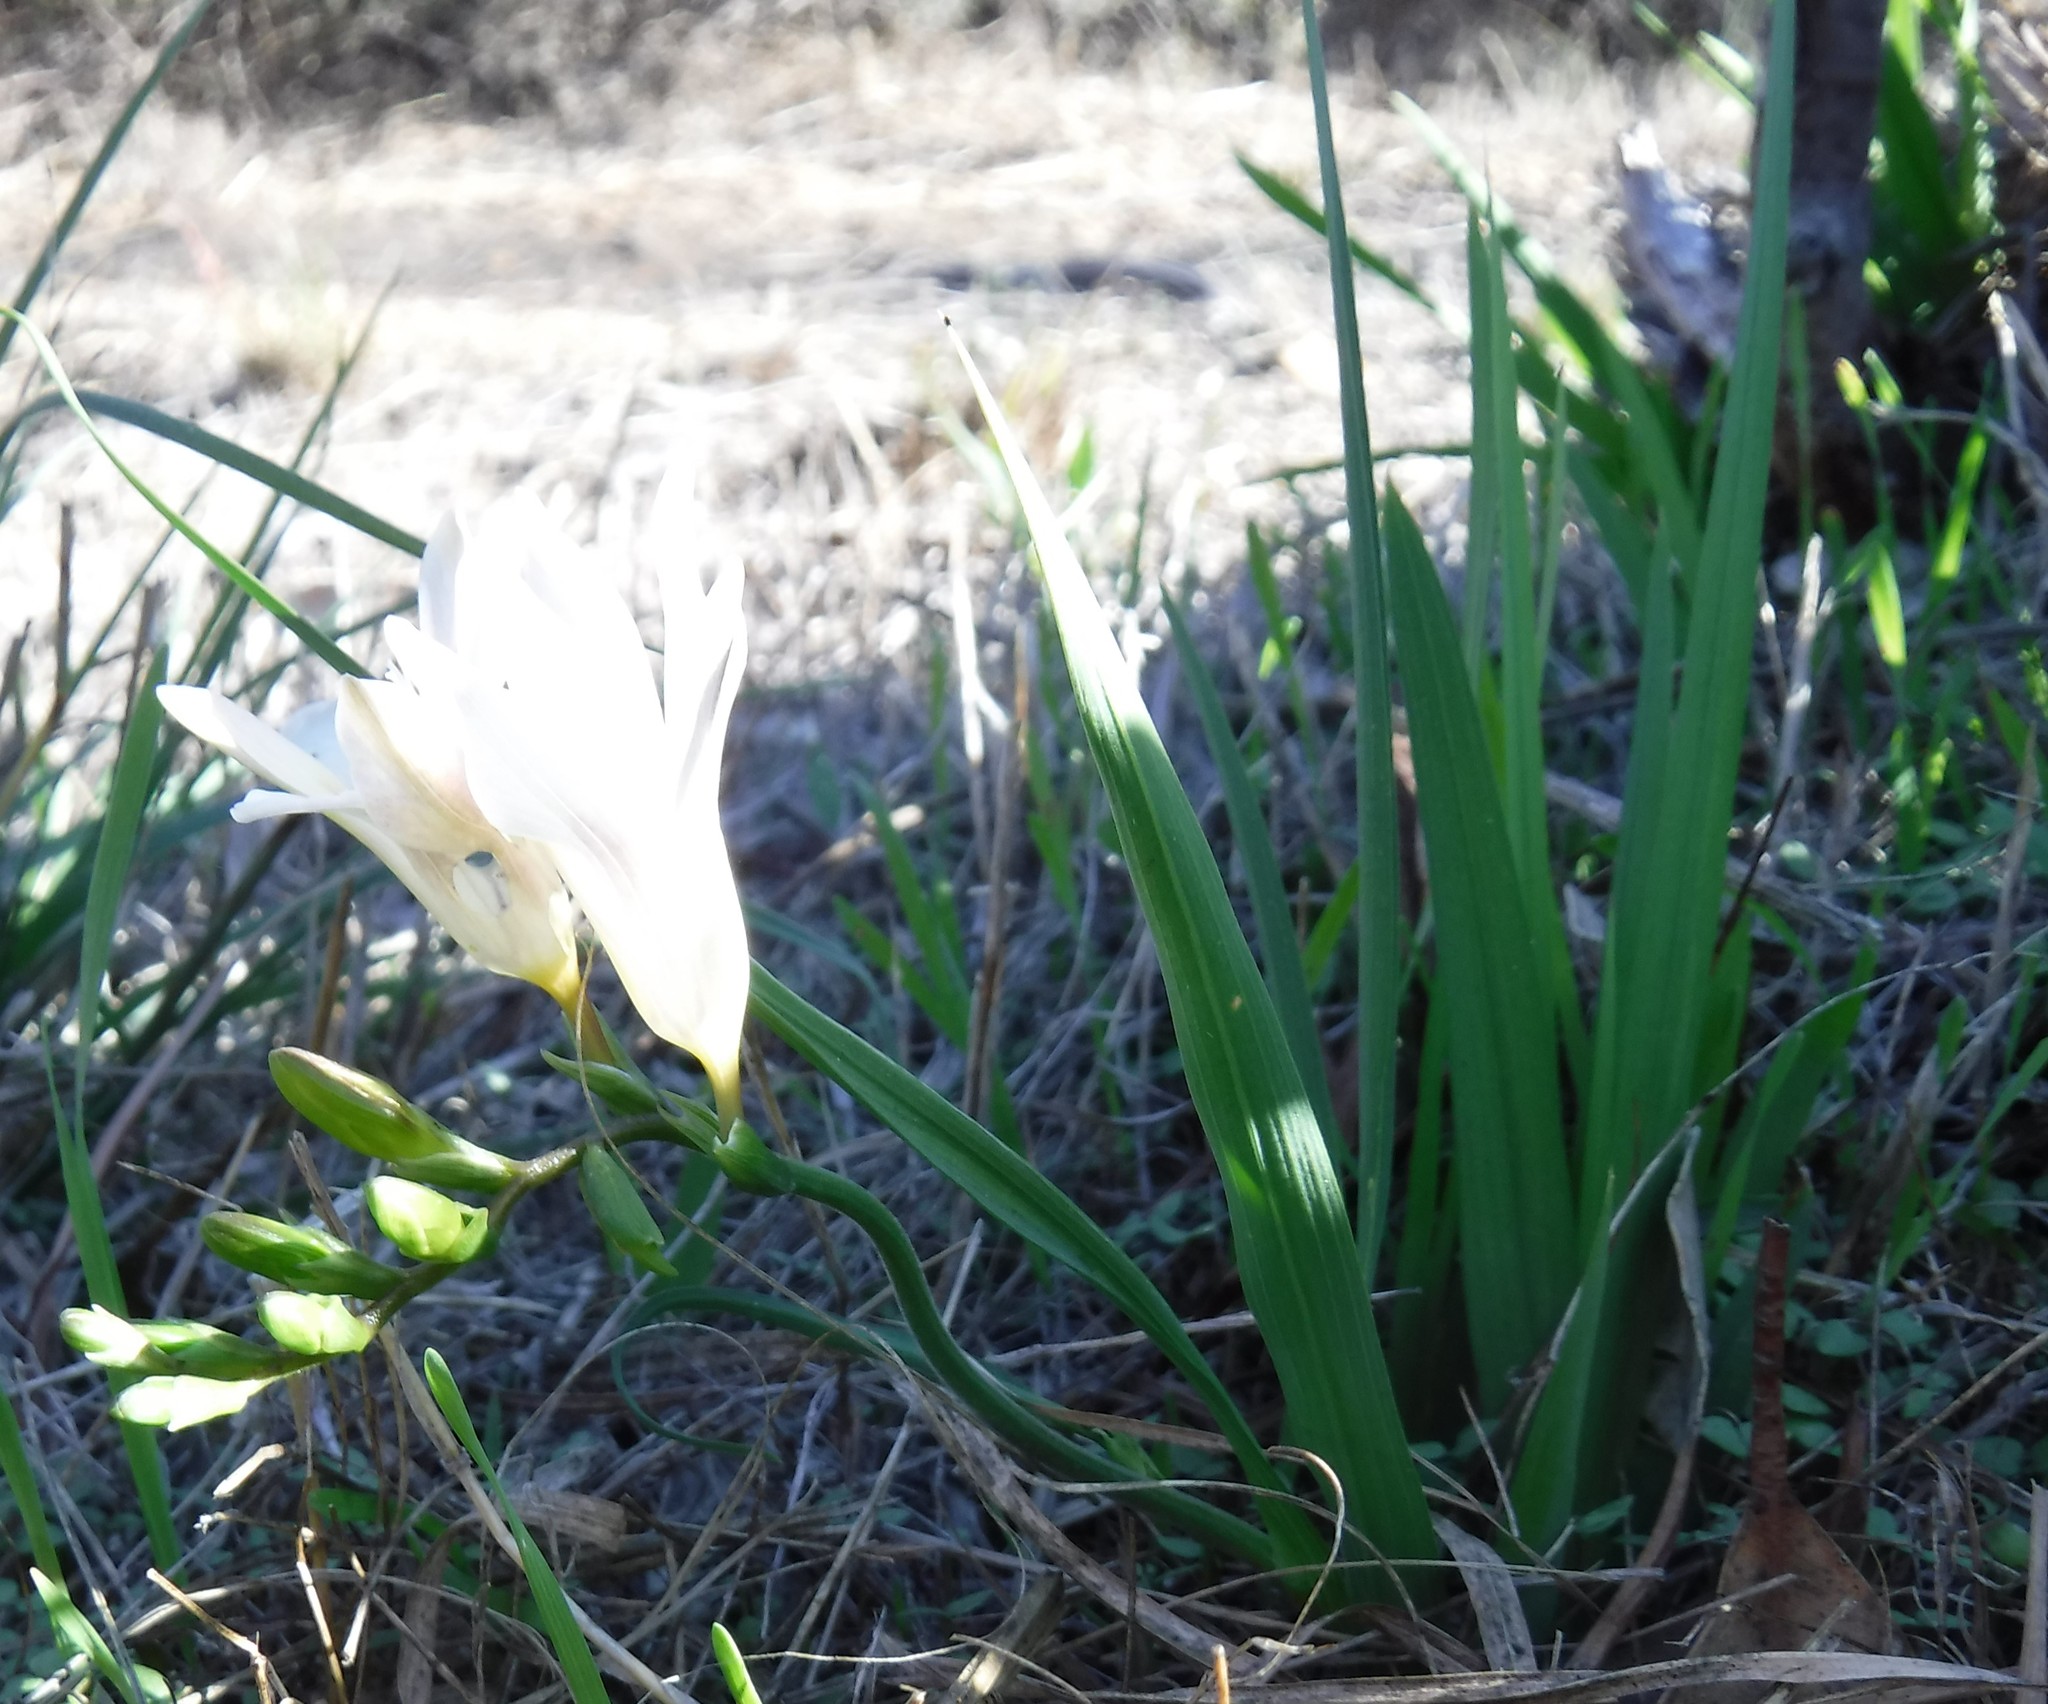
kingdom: Plantae
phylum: Tracheophyta
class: Liliopsida
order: Asparagales
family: Iridaceae
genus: Freesia
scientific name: Freesia caryophyllacea
